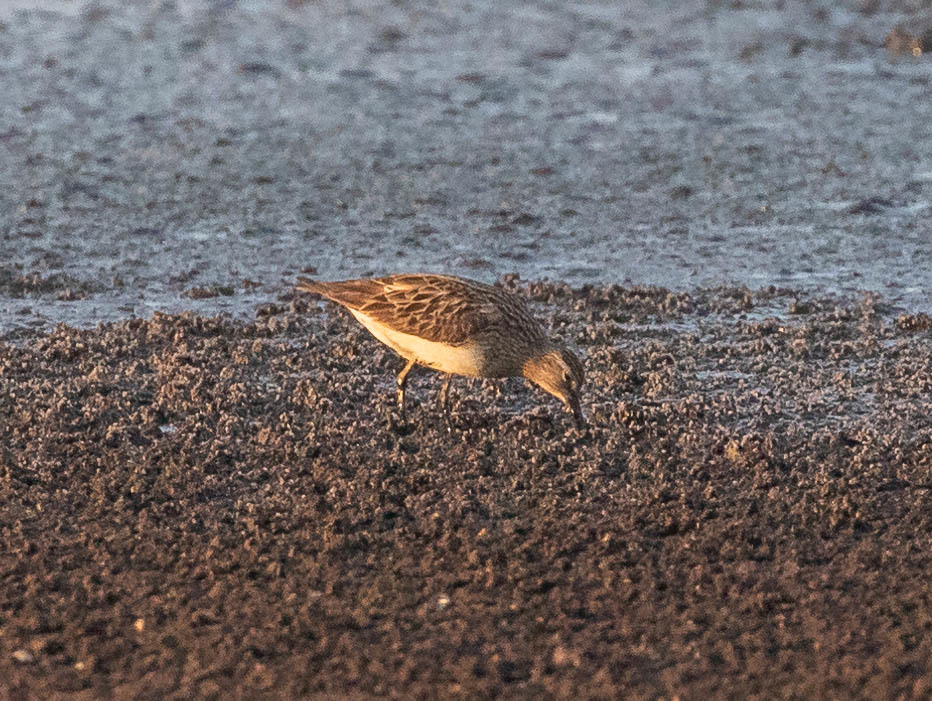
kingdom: Animalia
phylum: Chordata
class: Aves
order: Charadriiformes
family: Scolopacidae
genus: Calidris
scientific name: Calidris melanotos
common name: Pectoral sandpiper
